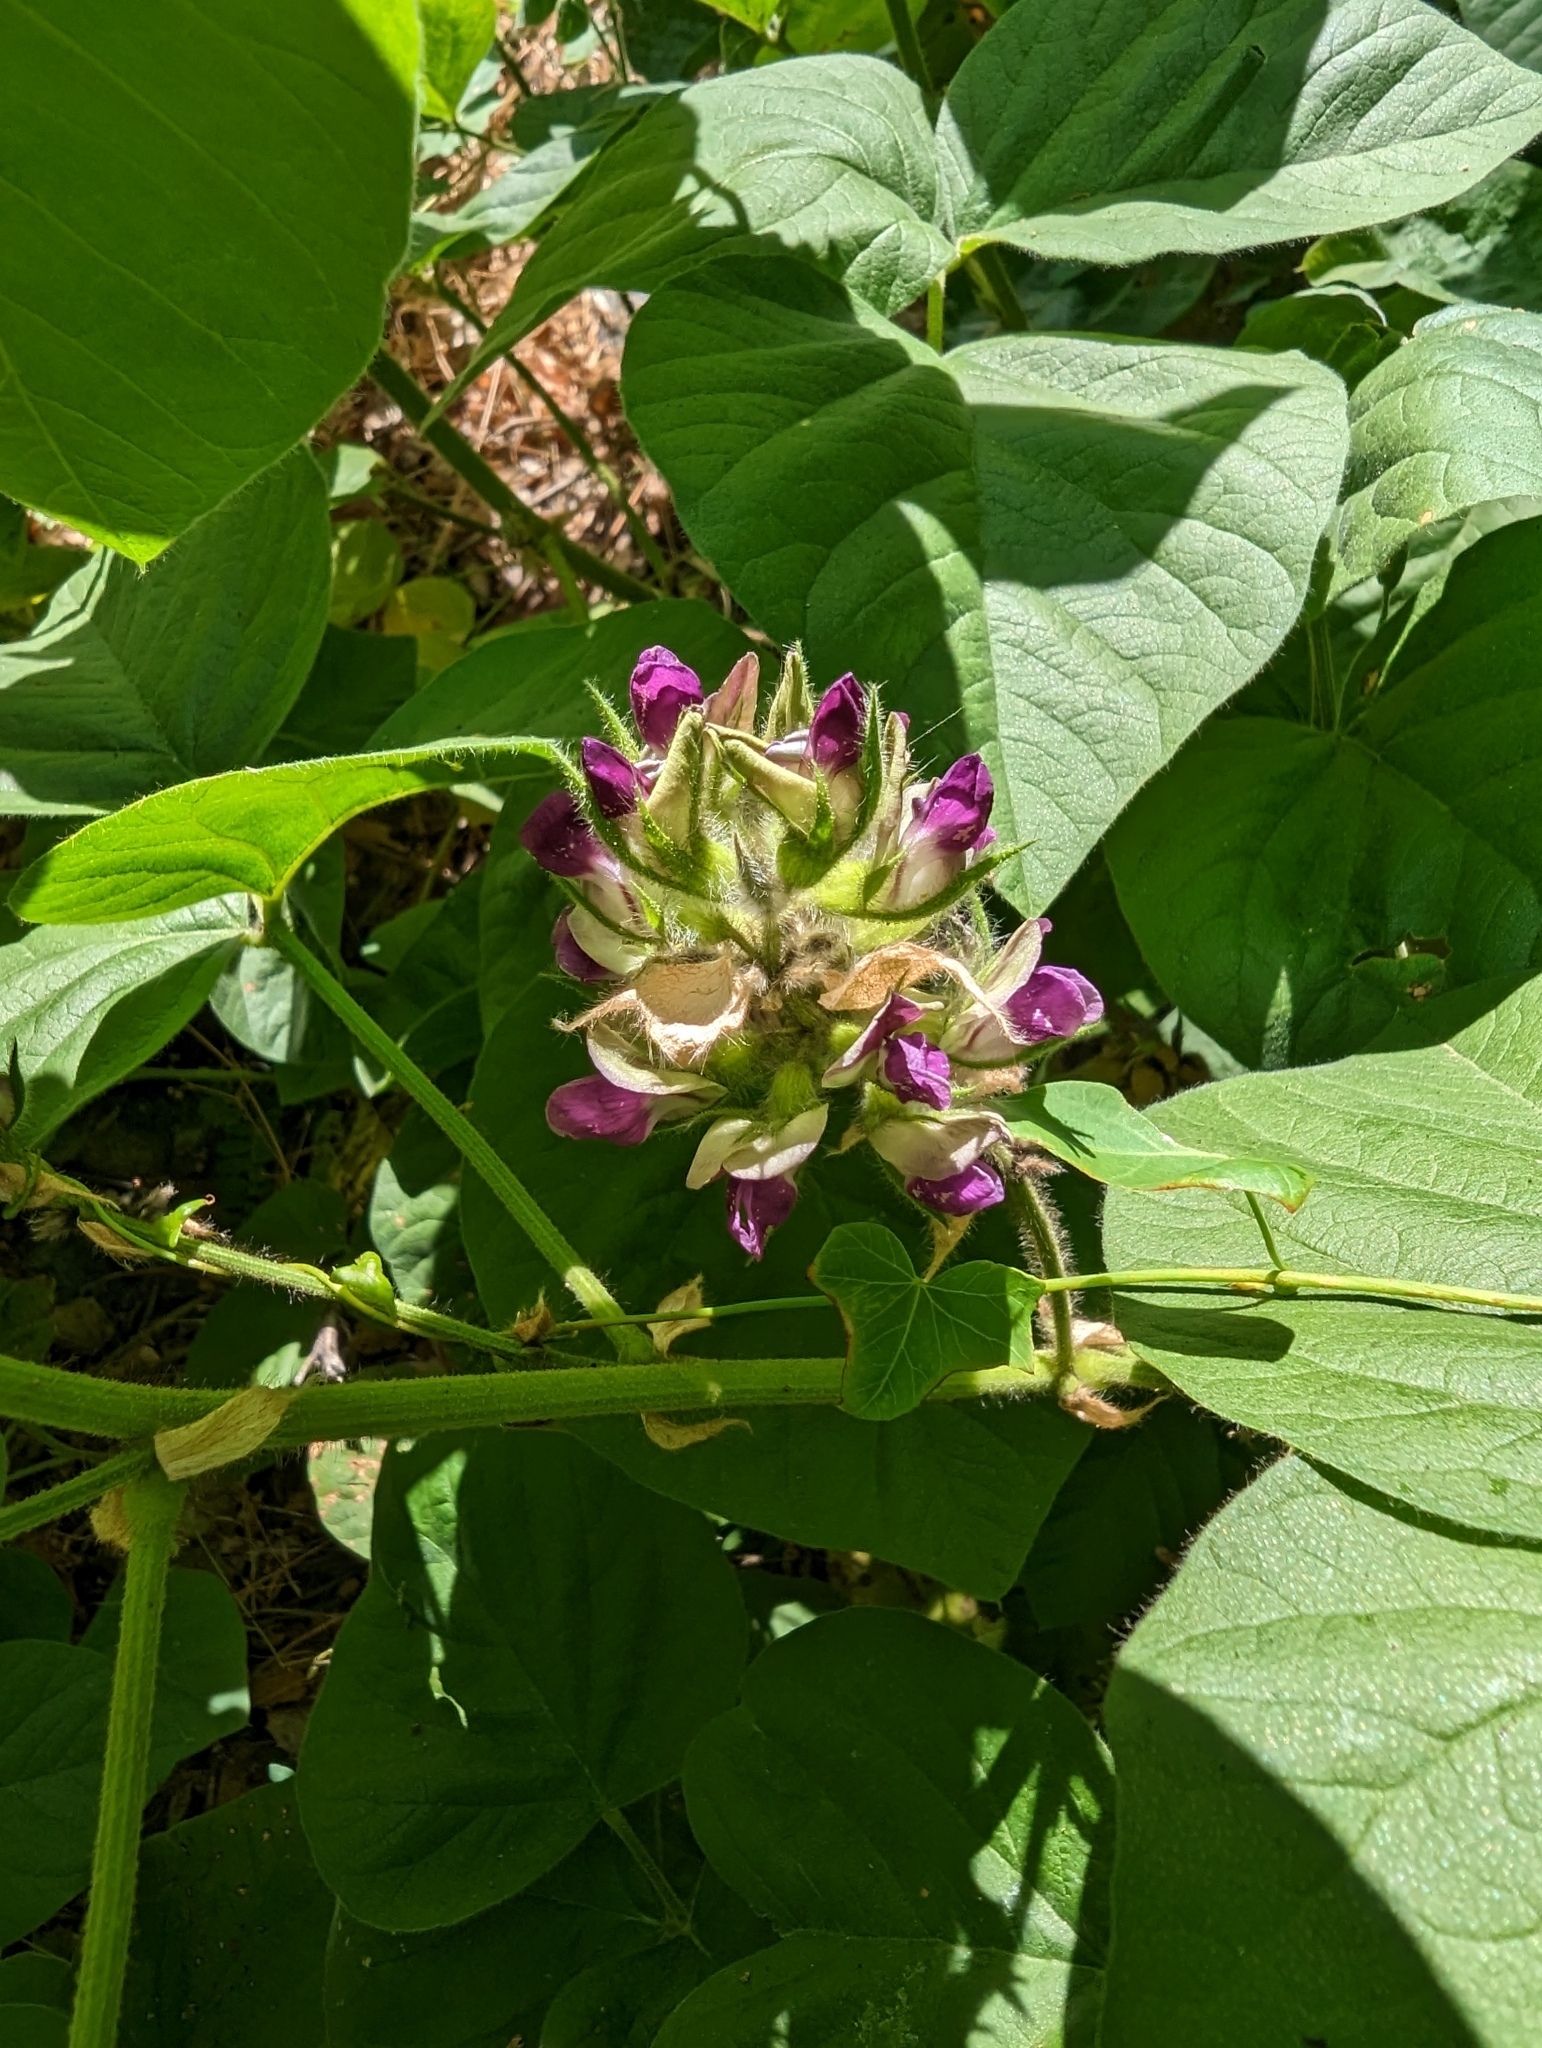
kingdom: Plantae
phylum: Tracheophyta
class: Magnoliopsida
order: Fabales
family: Fabaceae
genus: Hoita
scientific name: Hoita strobilina
